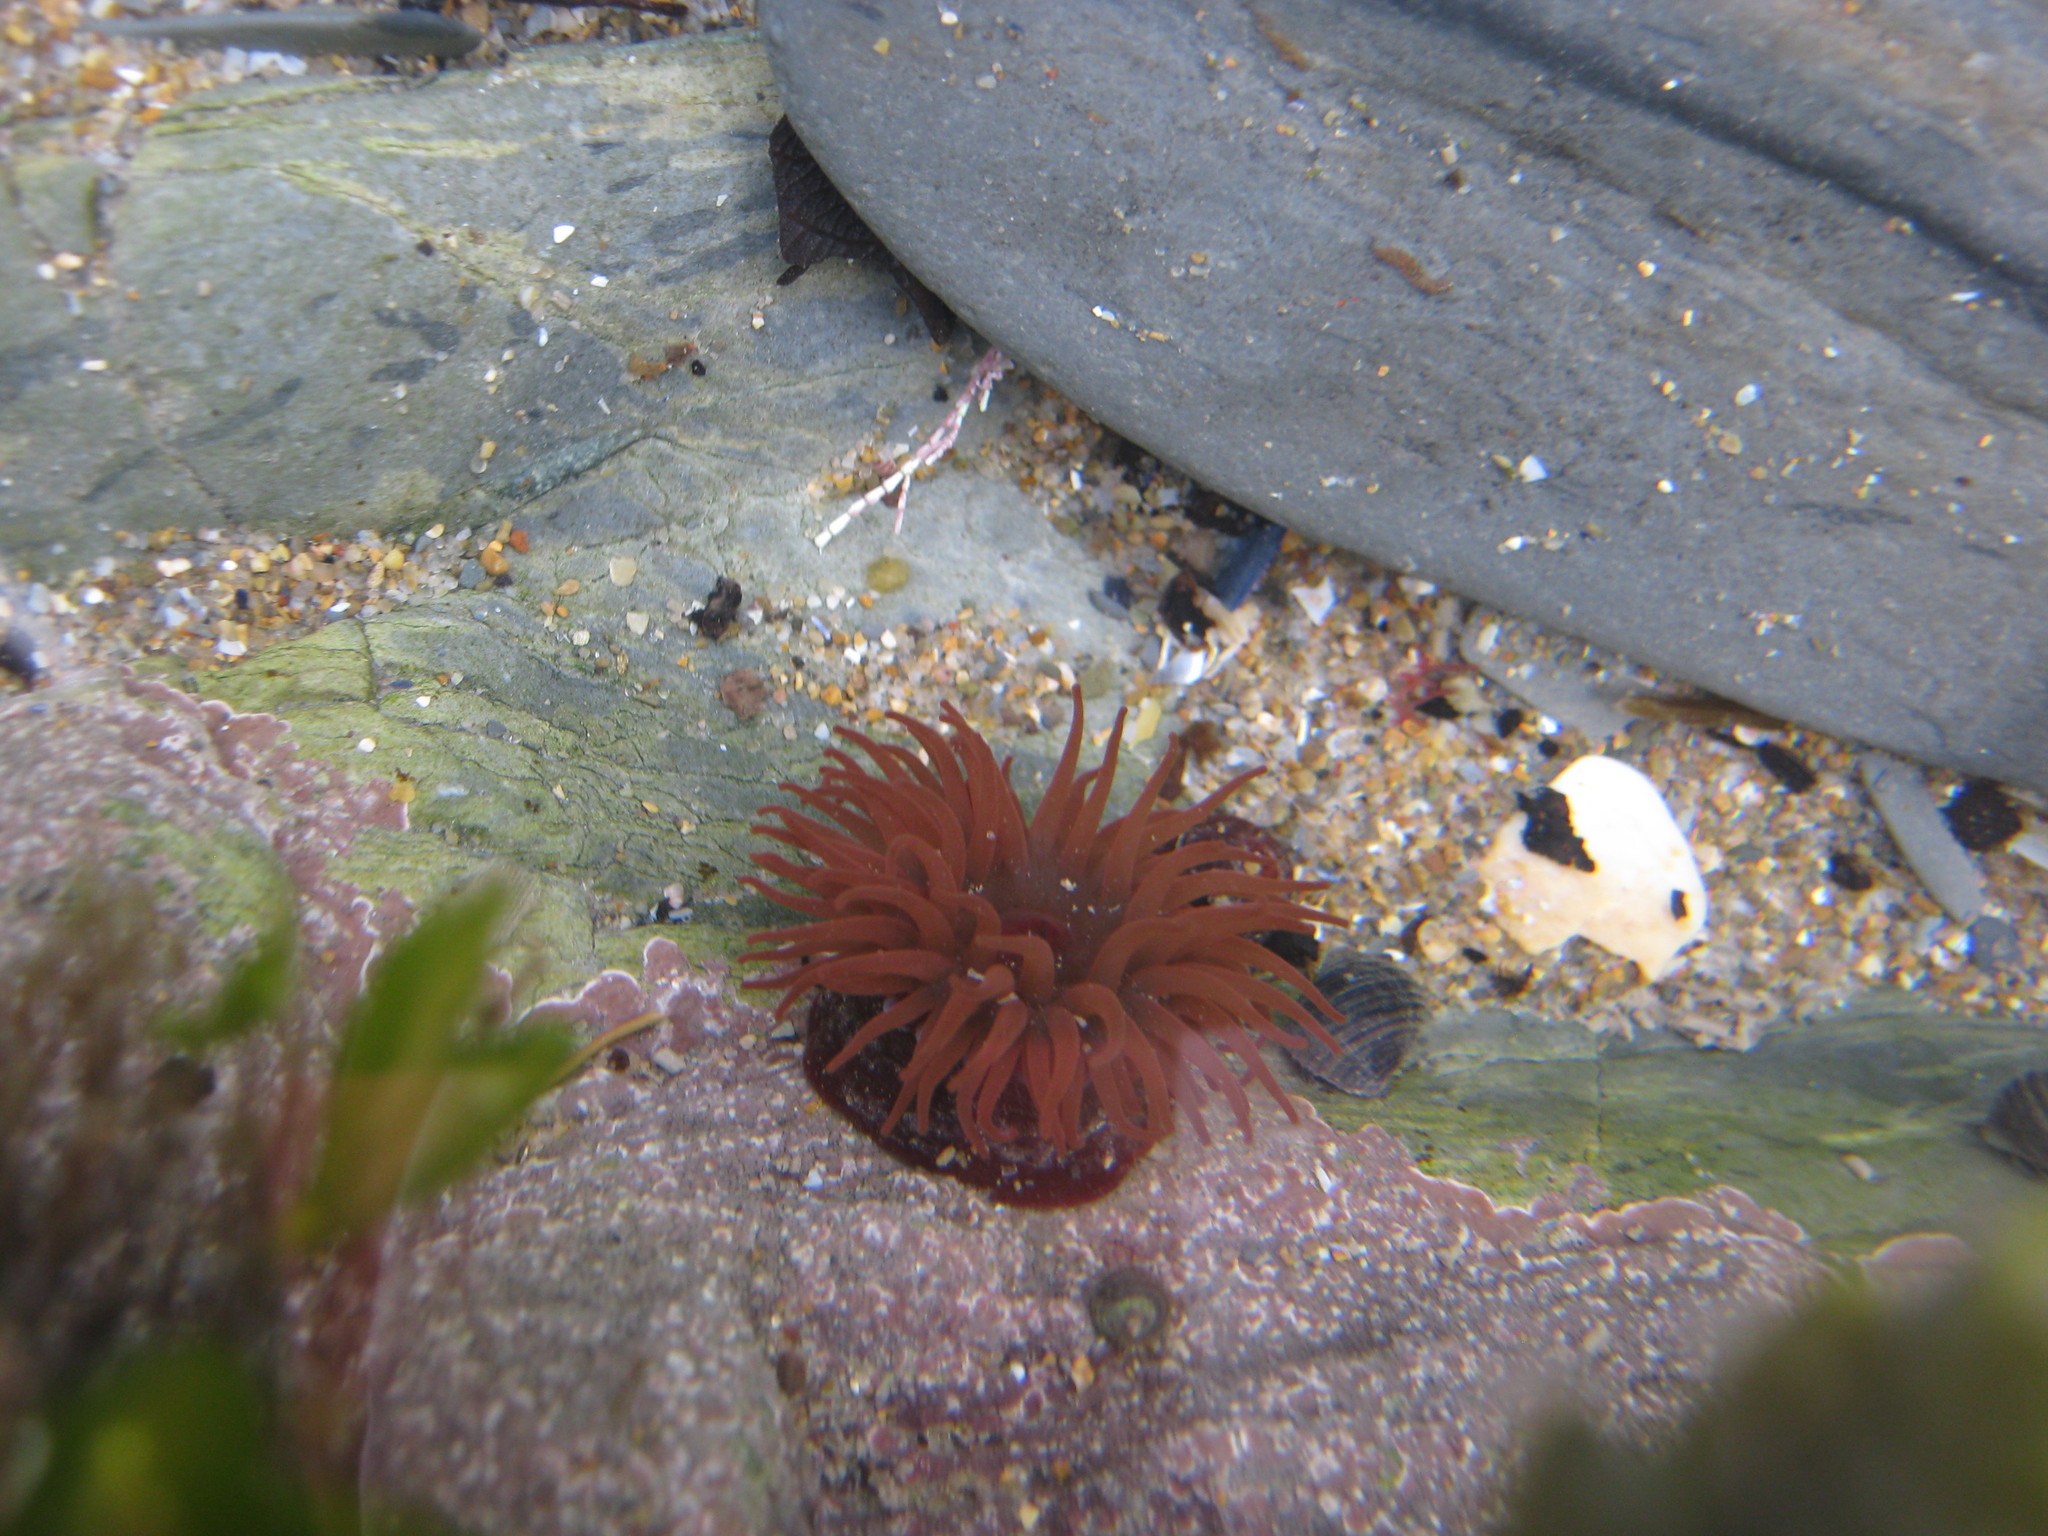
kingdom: Animalia
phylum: Cnidaria
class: Anthozoa
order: Actiniaria
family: Actiniidae
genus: Actinia
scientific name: Actinia equina
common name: Beadlet anemone
